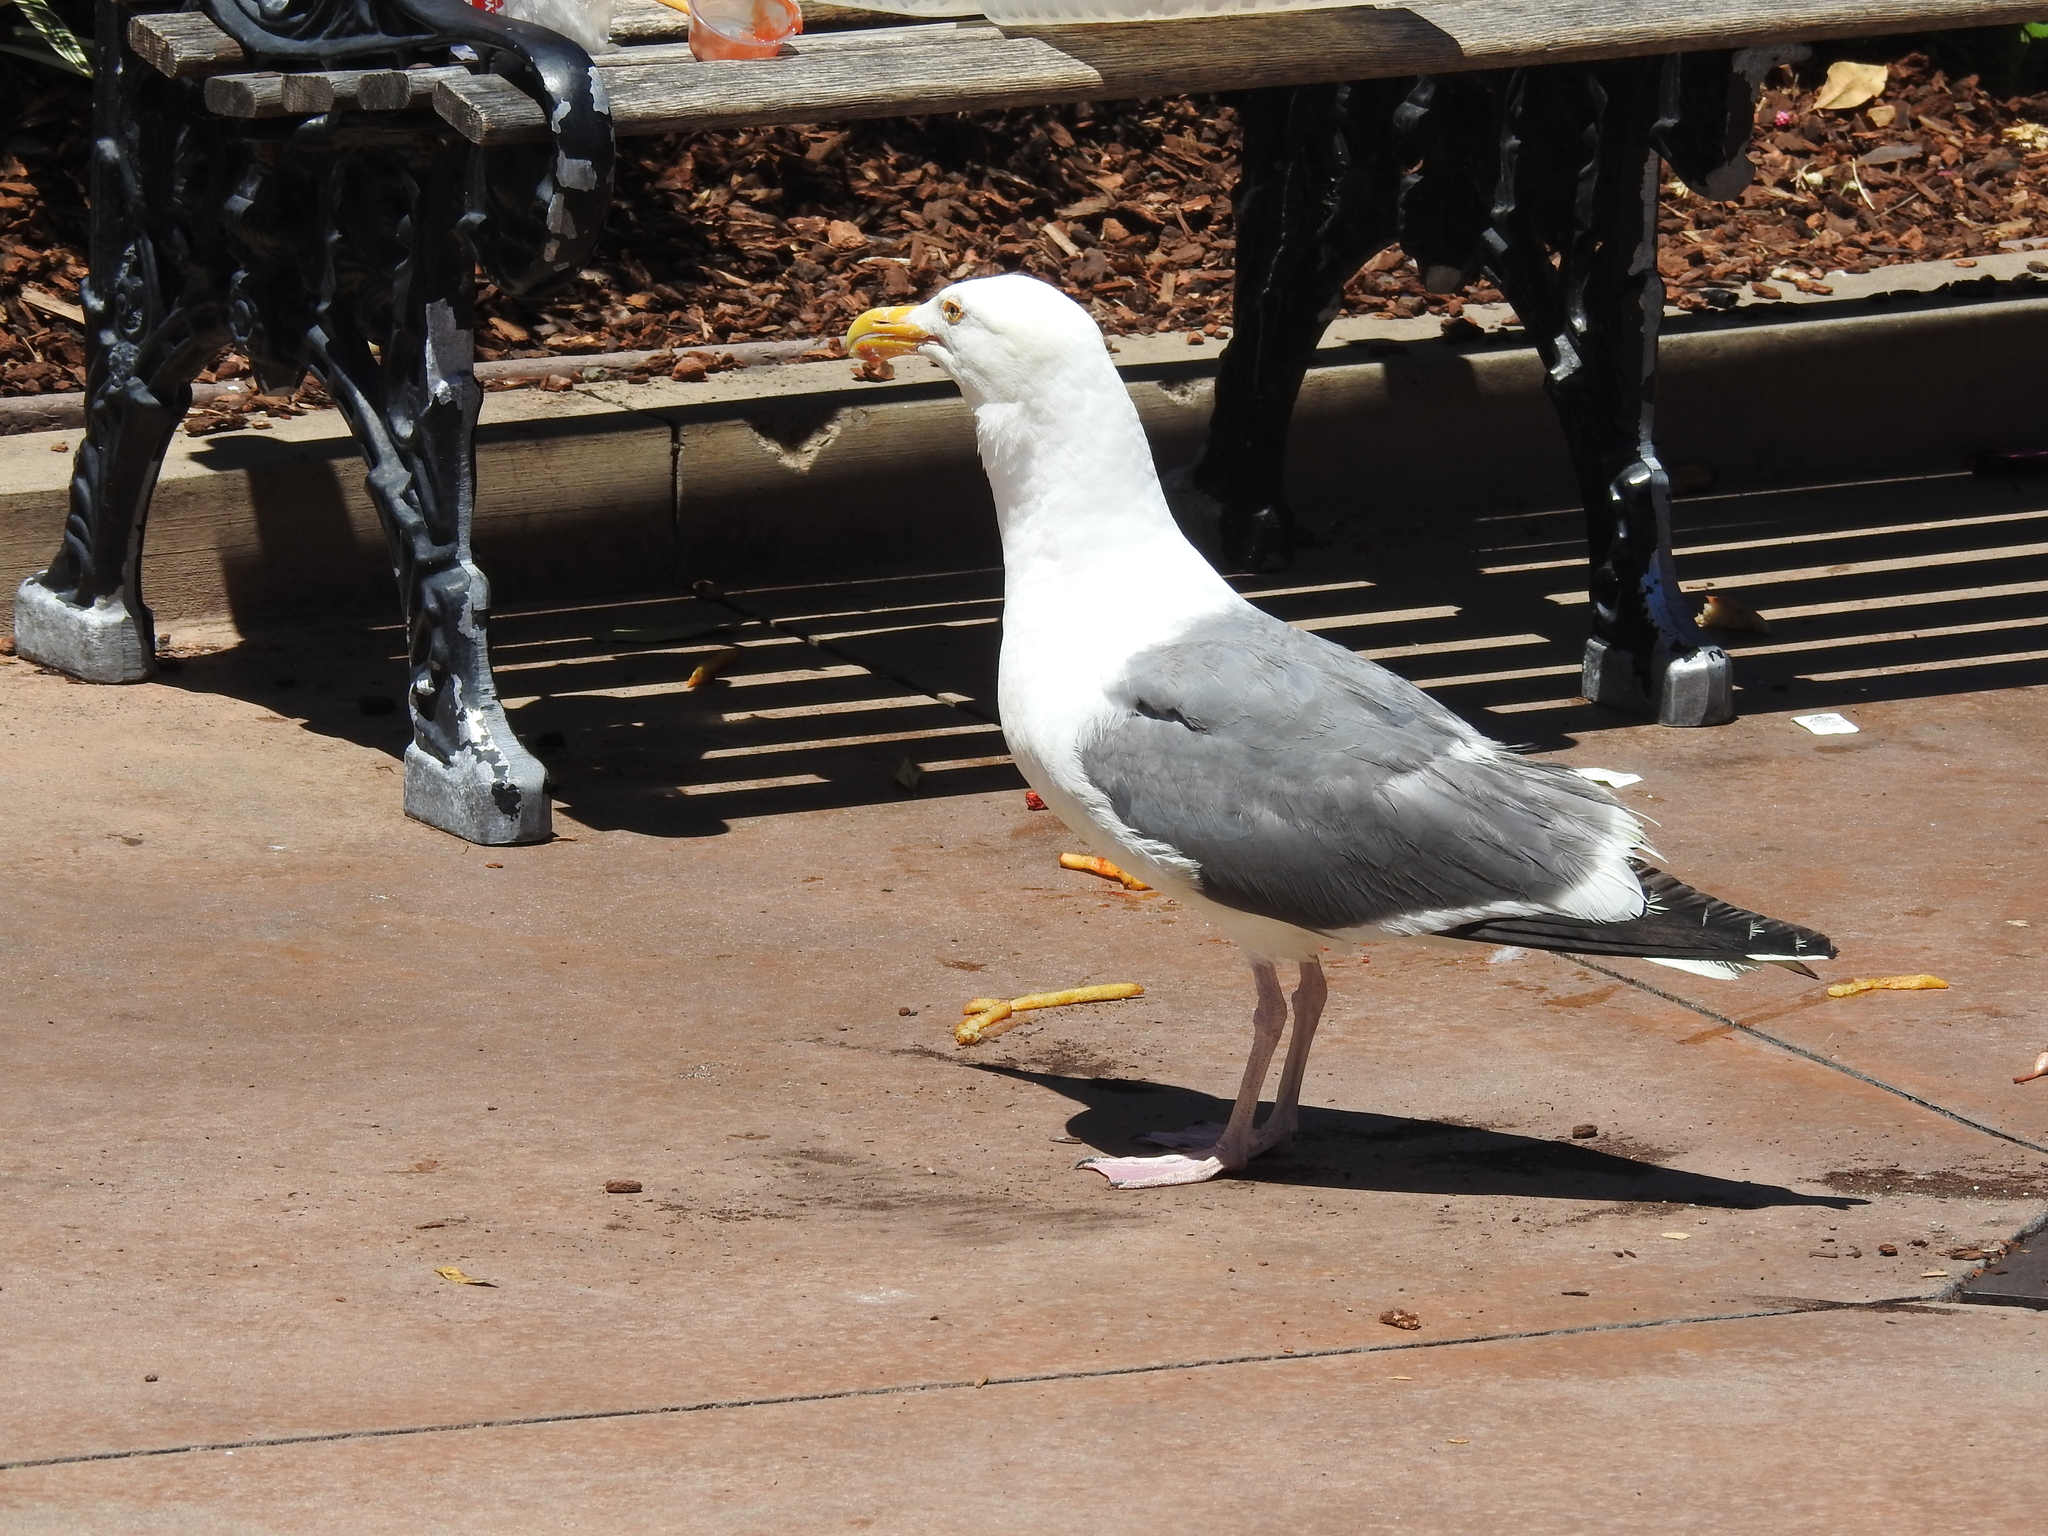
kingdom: Animalia
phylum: Chordata
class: Aves
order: Charadriiformes
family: Laridae
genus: Larus
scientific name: Larus occidentalis
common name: Western gull
